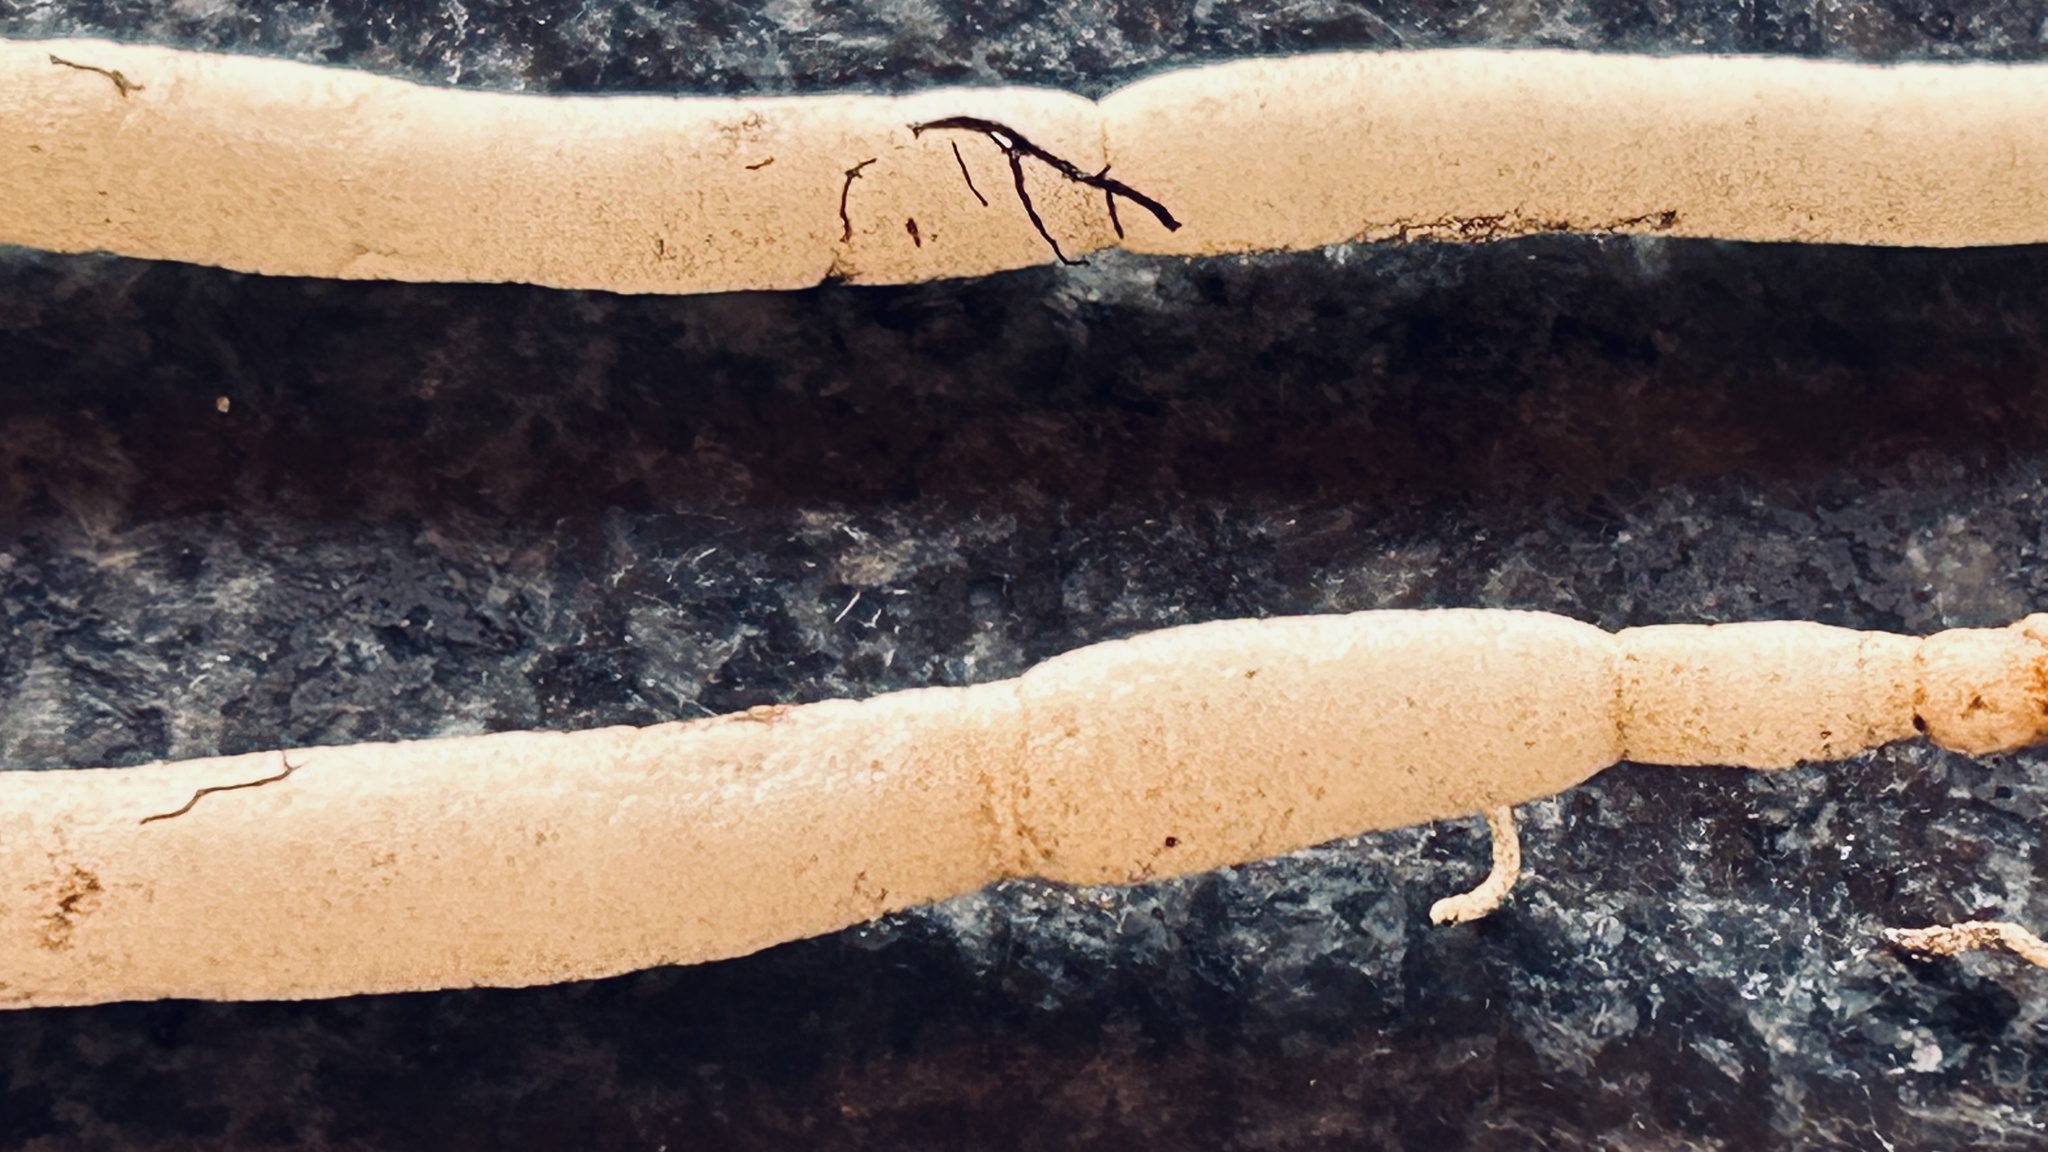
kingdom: Plantae
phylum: Tracheophyta
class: Magnoliopsida
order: Gentianales
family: Apocynaceae
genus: Ceropegia
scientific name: Ceropegia barbata
